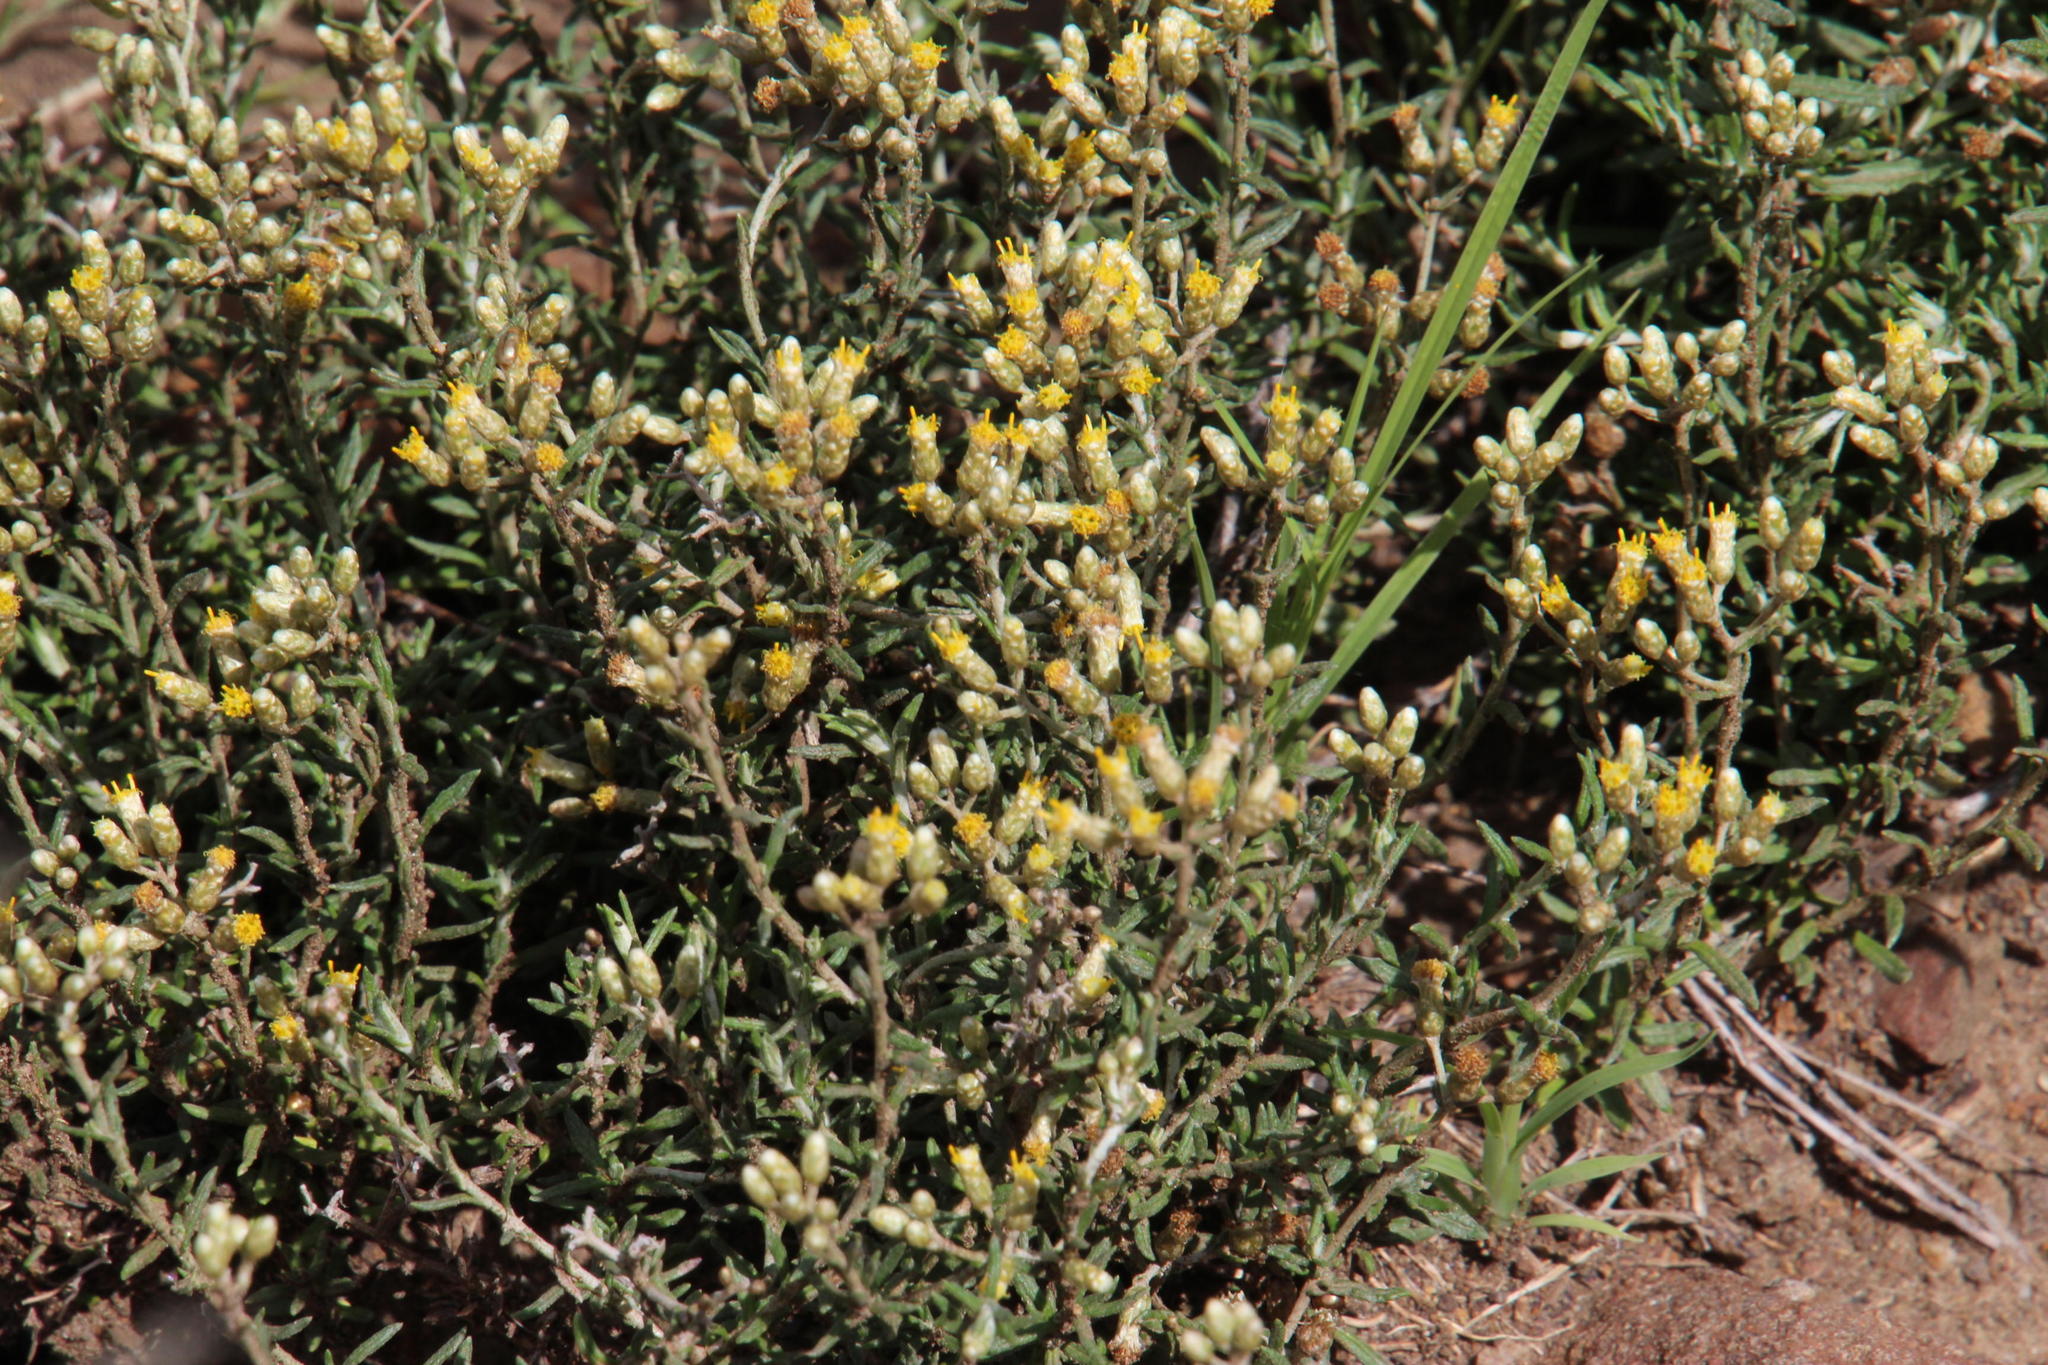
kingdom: Plantae
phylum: Tracheophyta
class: Magnoliopsida
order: Asterales
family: Asteraceae
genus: Helichrysum
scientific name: Helichrysum rugulosum
